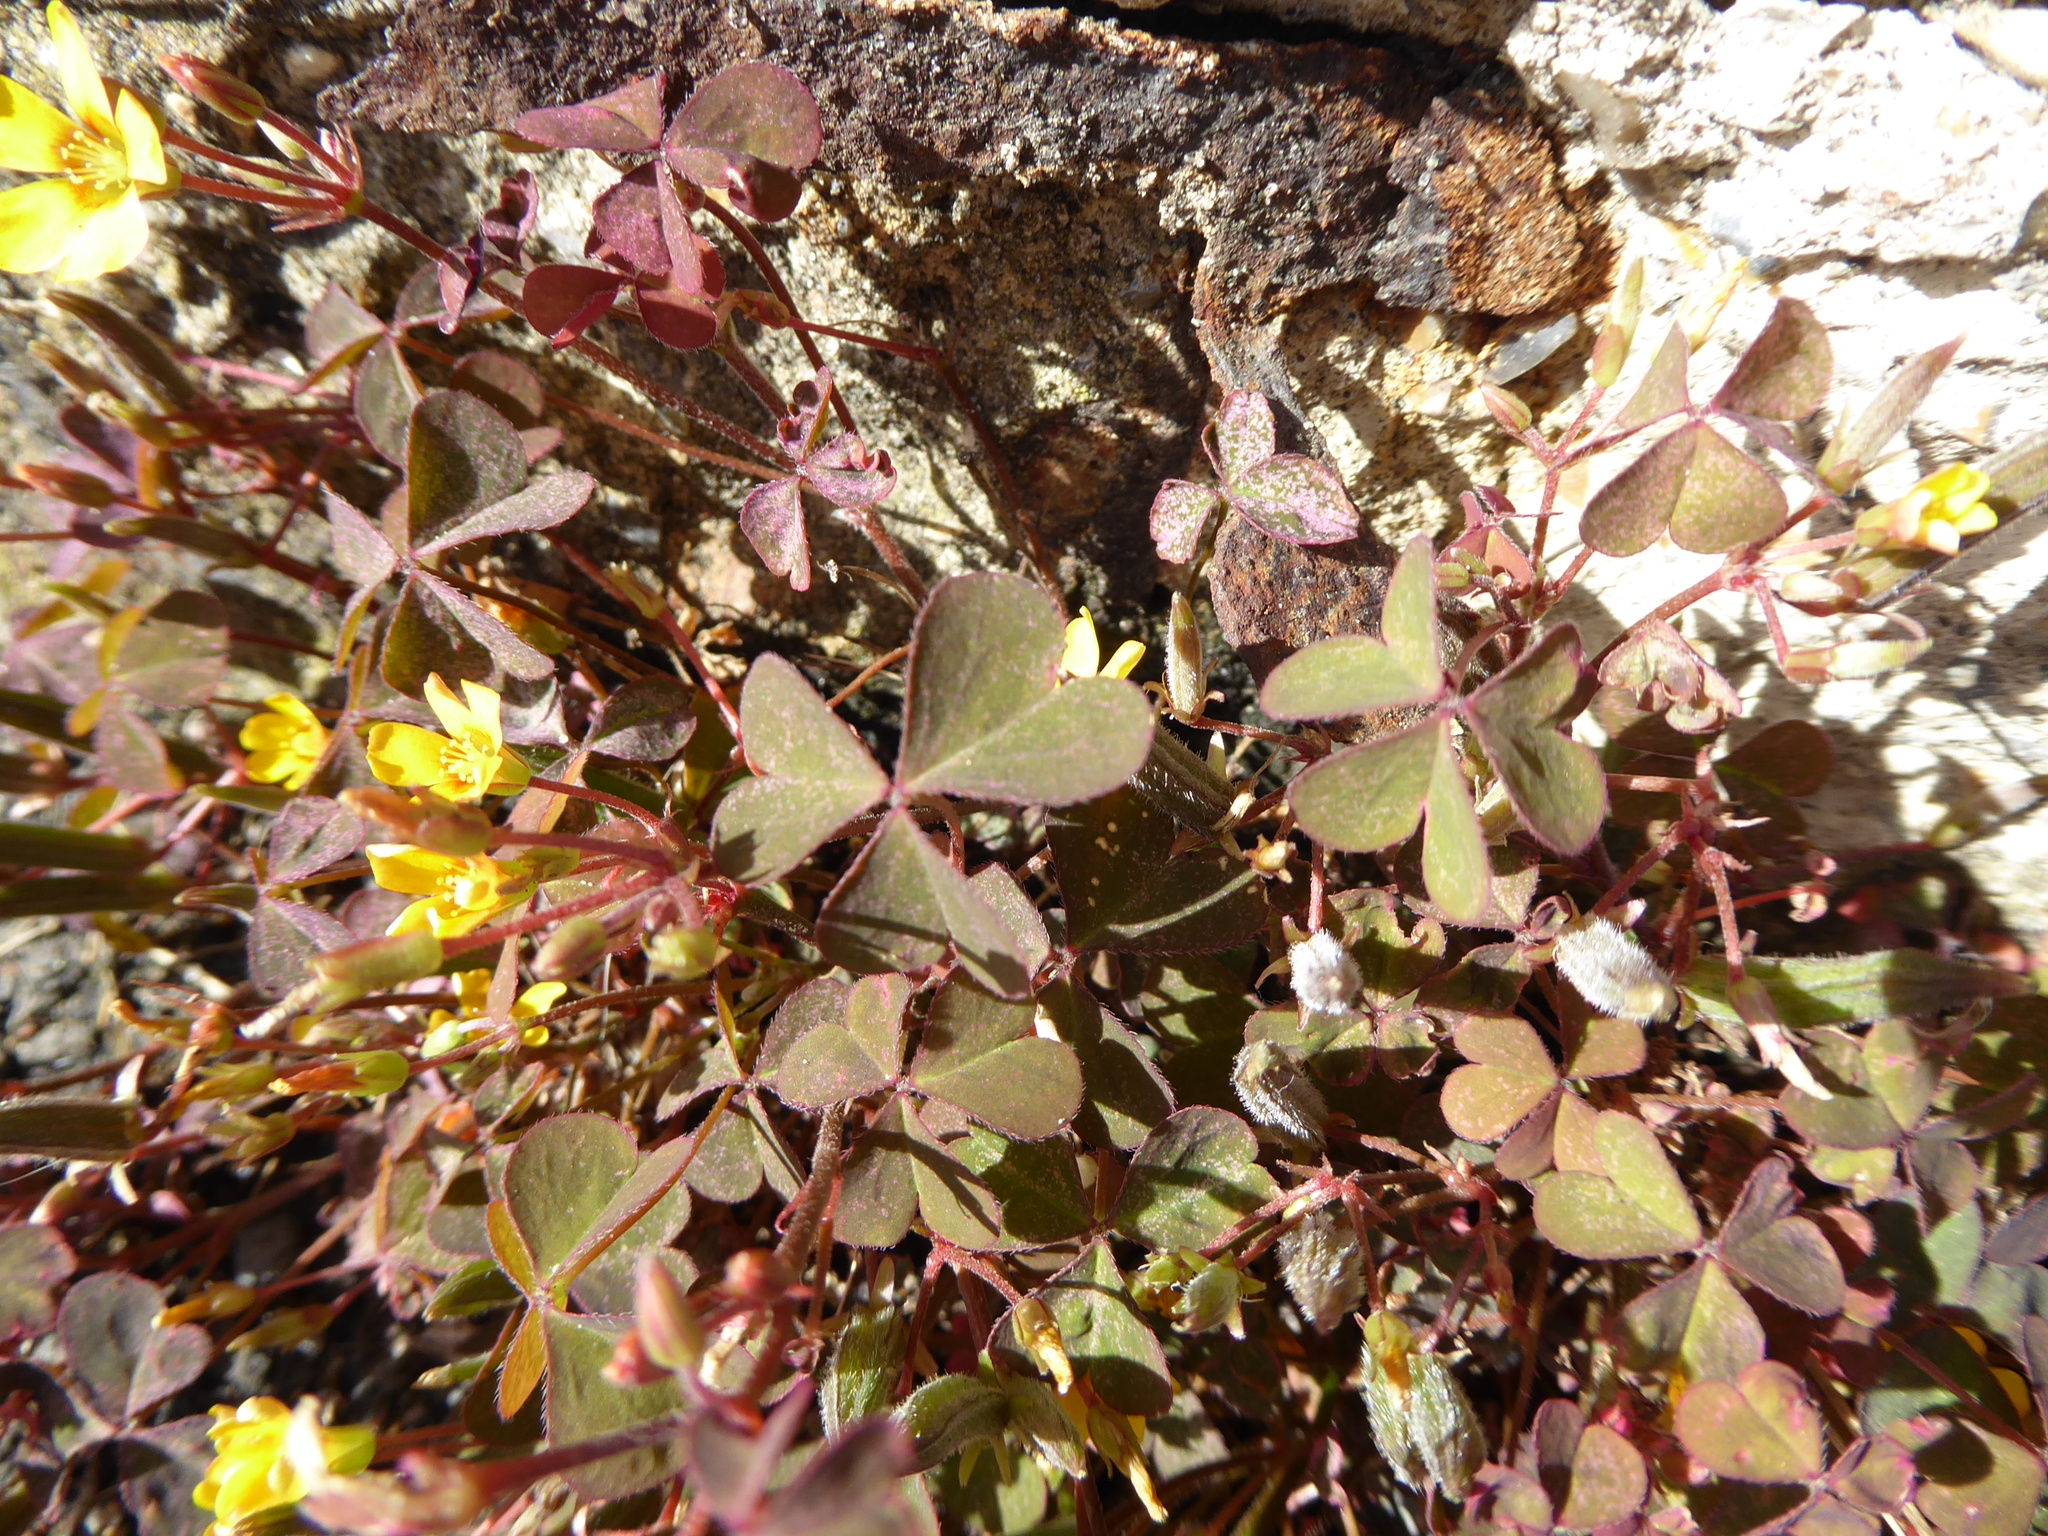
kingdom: Plantae
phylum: Tracheophyta
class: Magnoliopsida
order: Oxalidales
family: Oxalidaceae
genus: Oxalis
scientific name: Oxalis corniculata
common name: Procumbent yellow-sorrel
